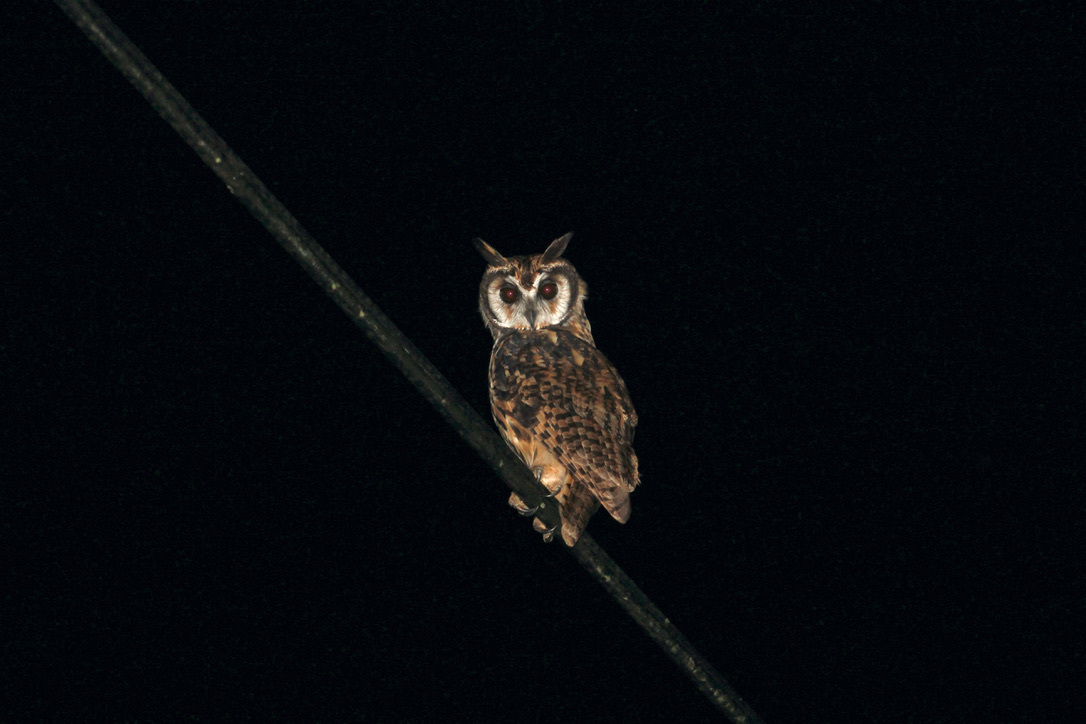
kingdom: Animalia
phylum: Chordata
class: Aves
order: Strigiformes
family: Strigidae
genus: Pseudoscops
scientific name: Pseudoscops clamator
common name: Striped owl
